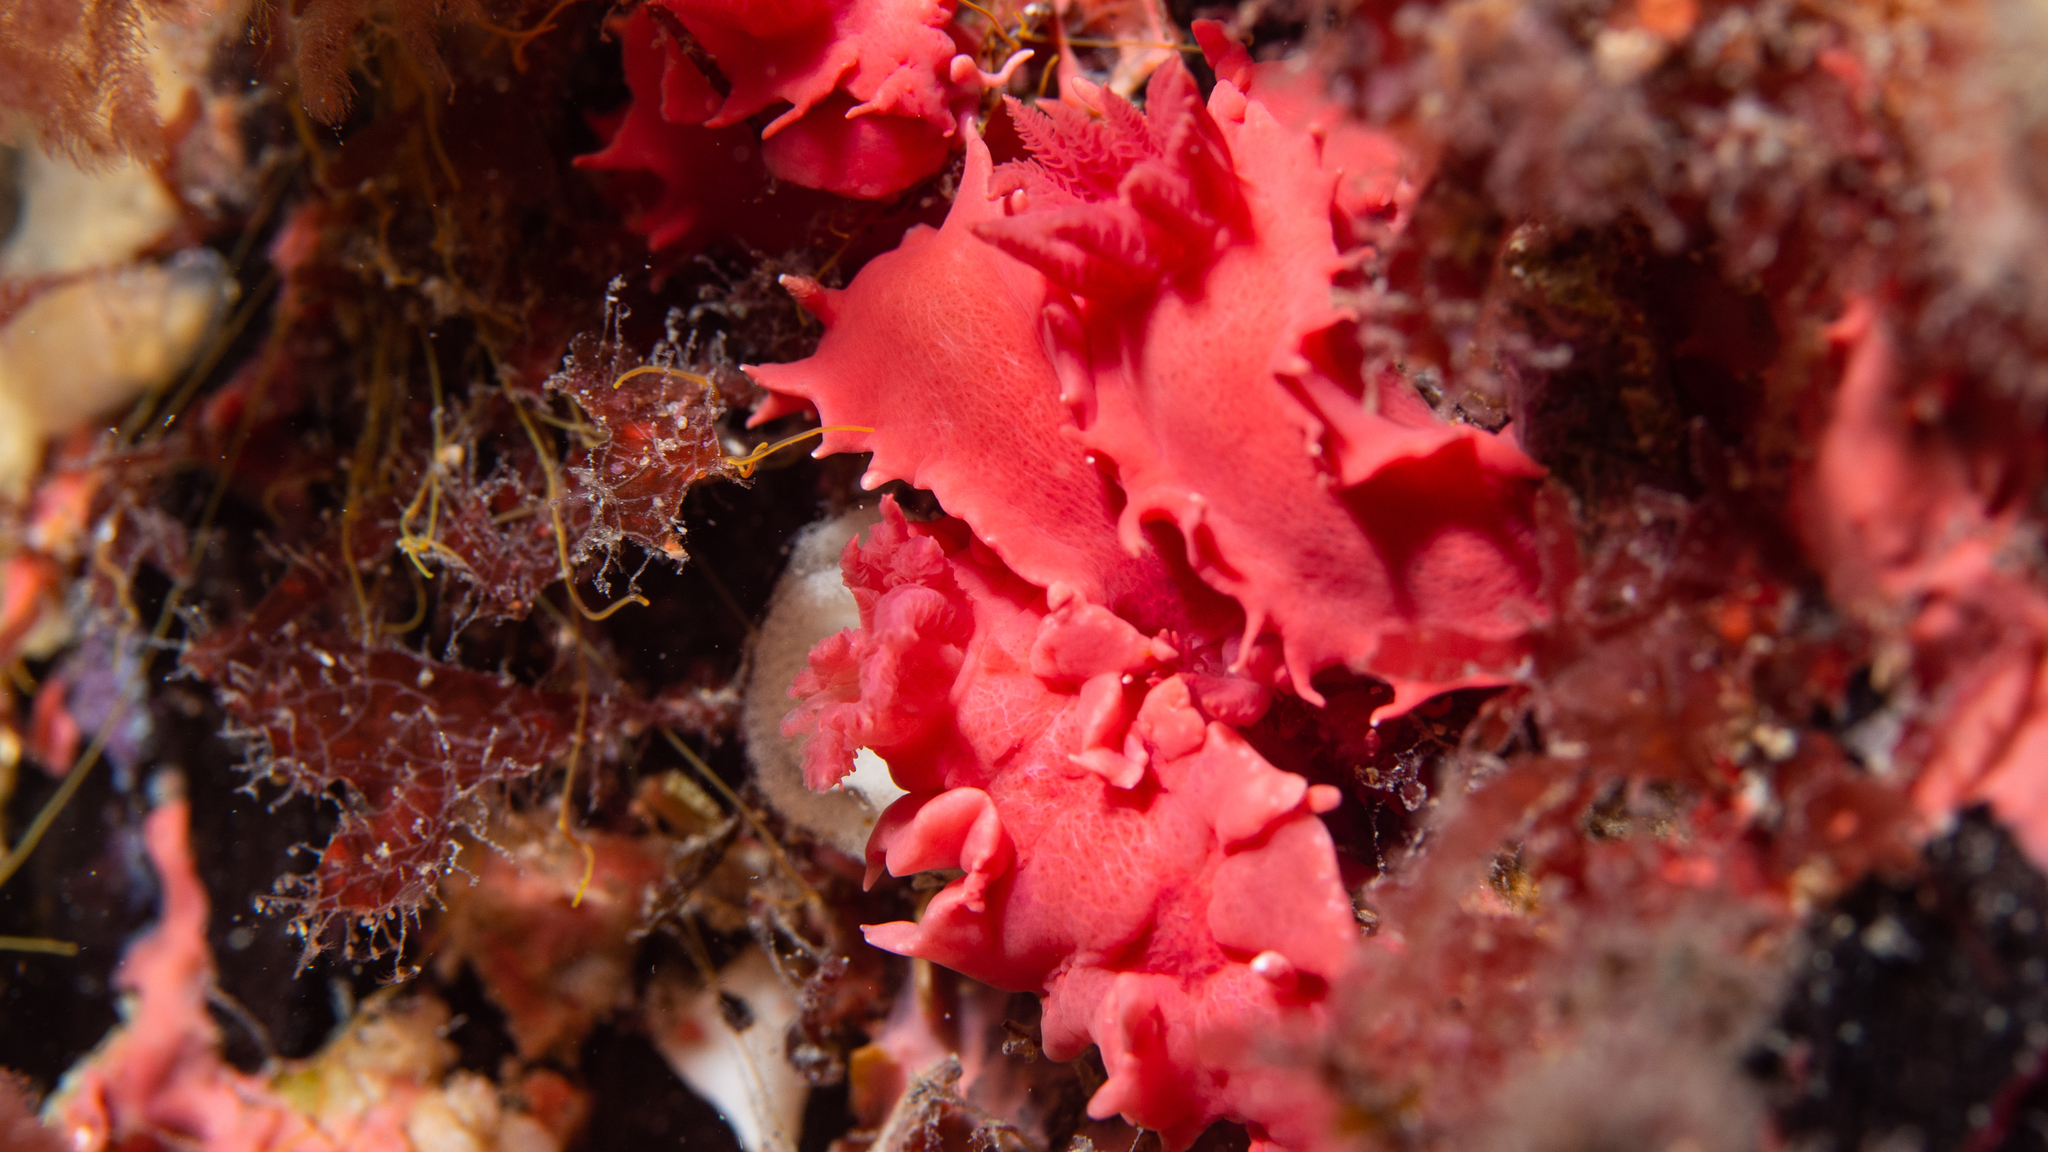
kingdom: Animalia
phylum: Mollusca
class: Gastropoda
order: Nudibranchia
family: Chromodorididae
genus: Verconia
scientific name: Verconia verconis
